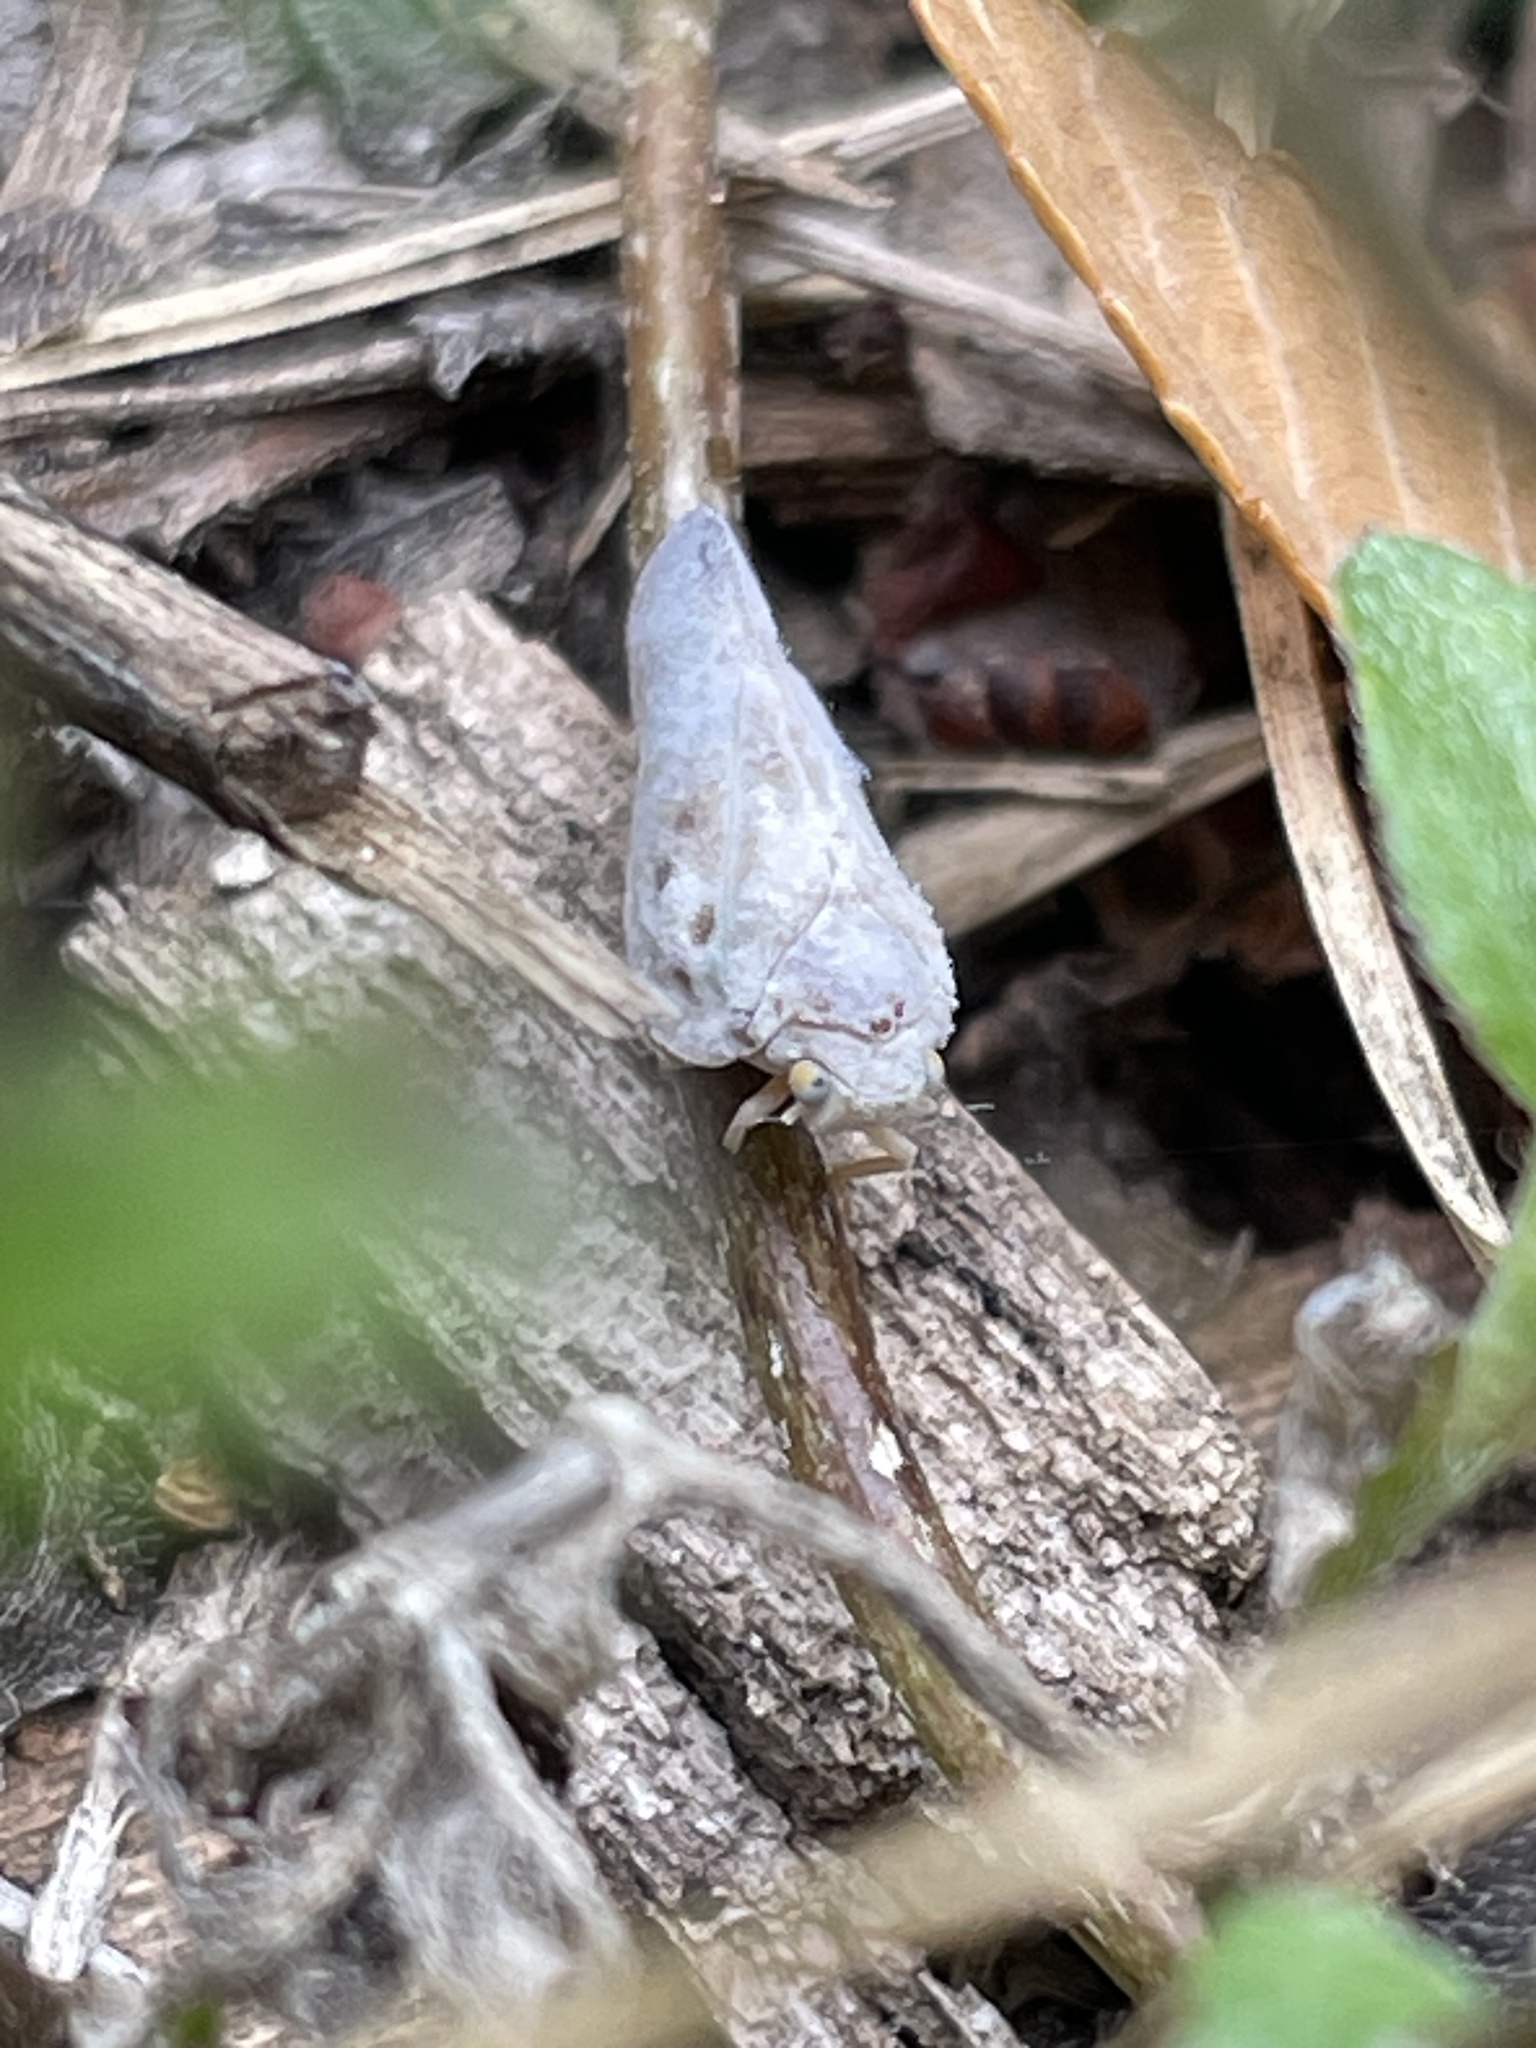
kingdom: Animalia
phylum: Arthropoda
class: Insecta
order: Hemiptera
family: Flatidae
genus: Metcalfa
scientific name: Metcalfa pruinosa
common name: Citrus flatid planthopper
